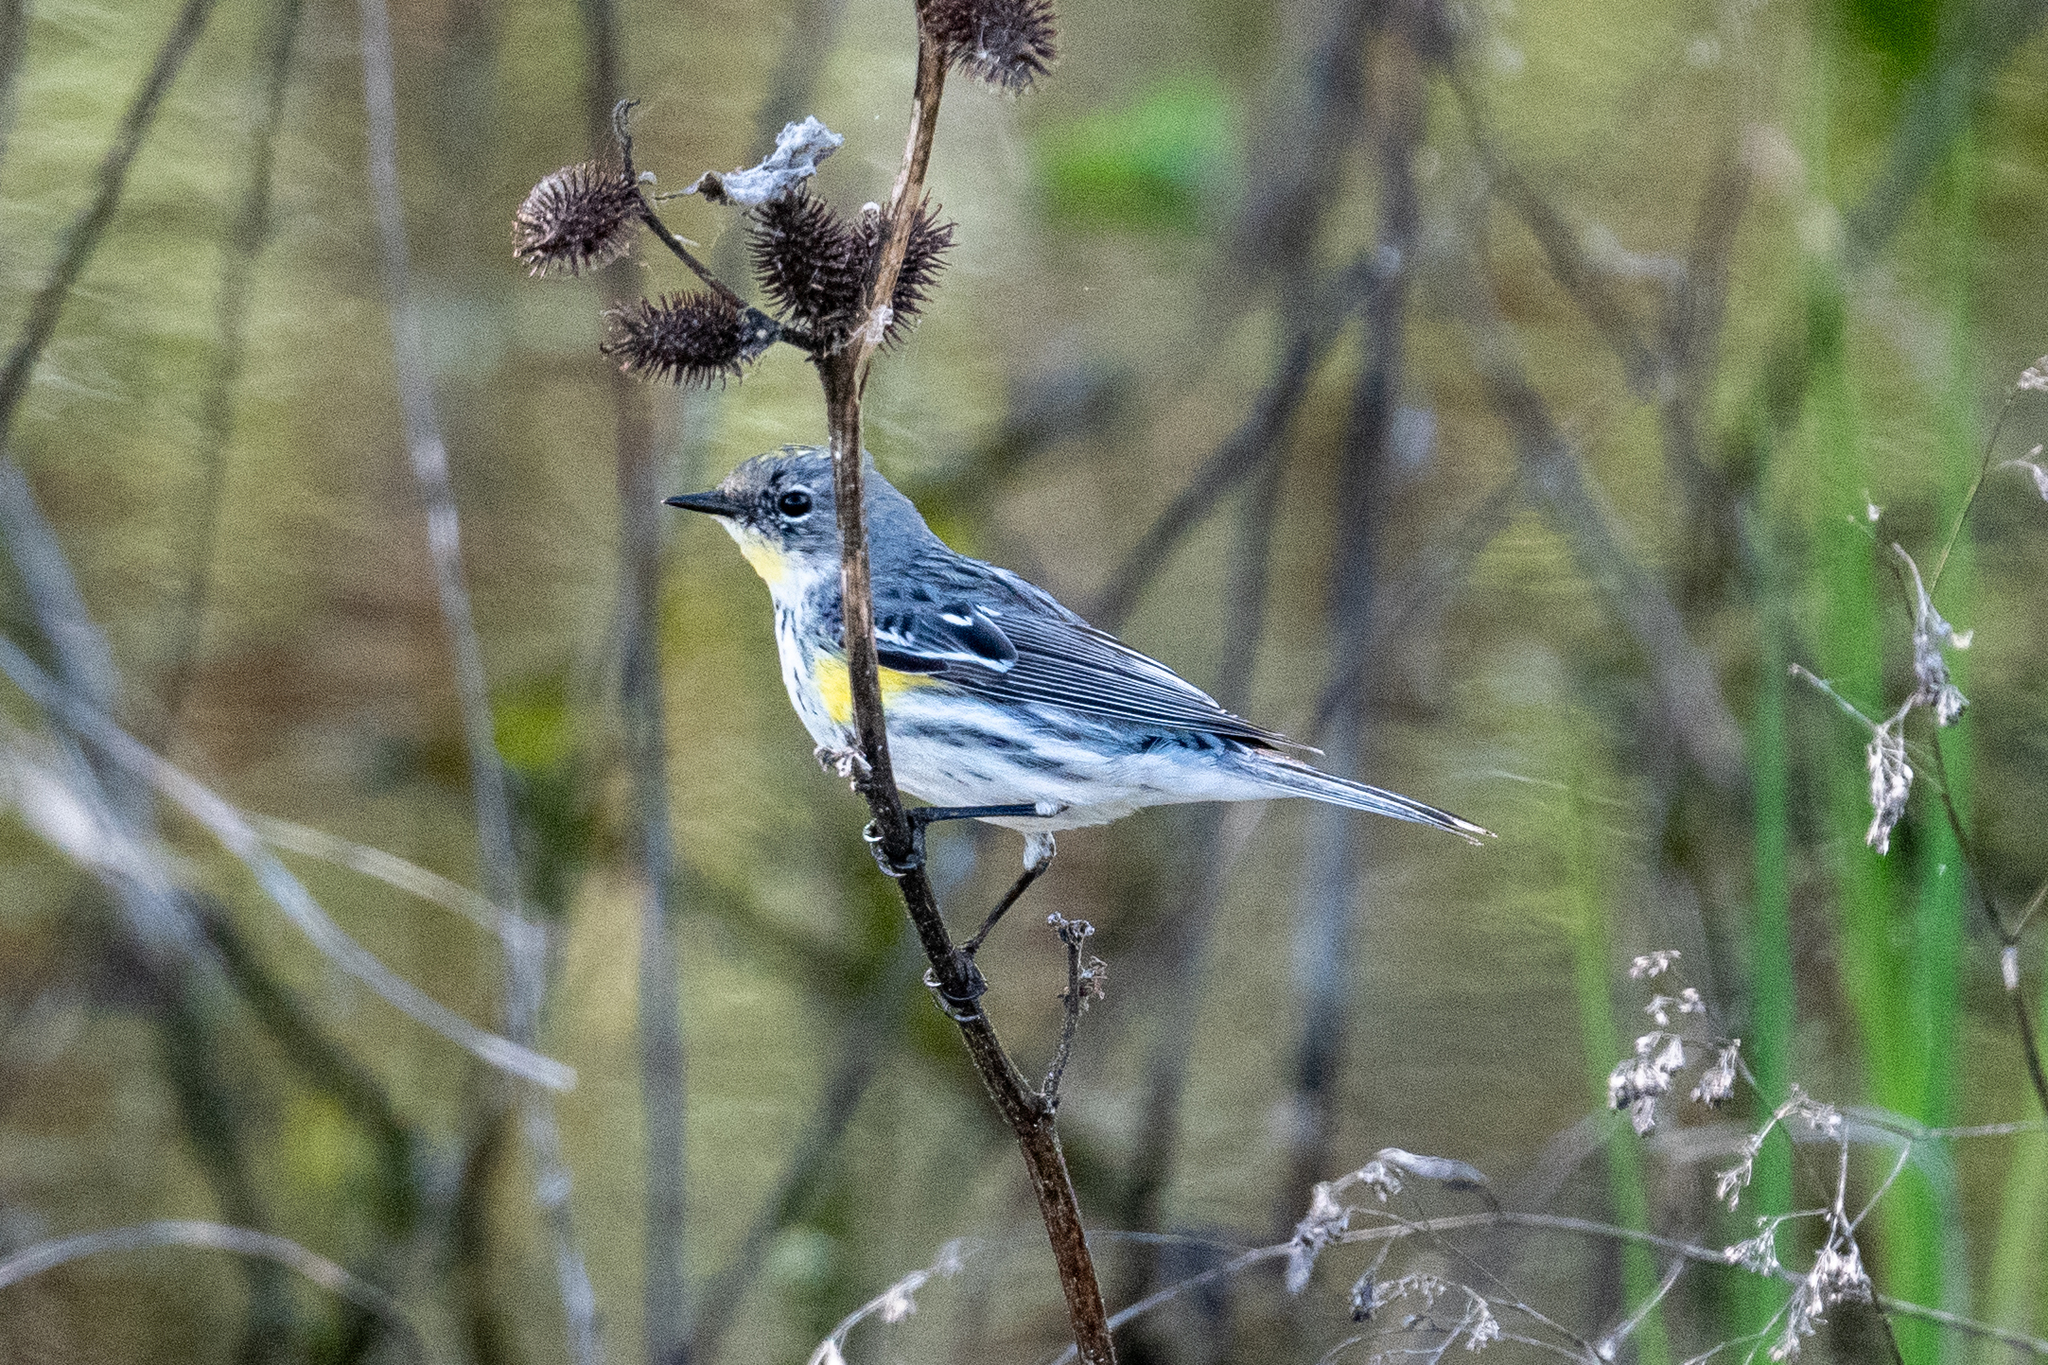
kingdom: Animalia
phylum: Chordata
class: Aves
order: Passeriformes
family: Parulidae
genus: Setophaga
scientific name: Setophaga coronata
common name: Myrtle warbler
